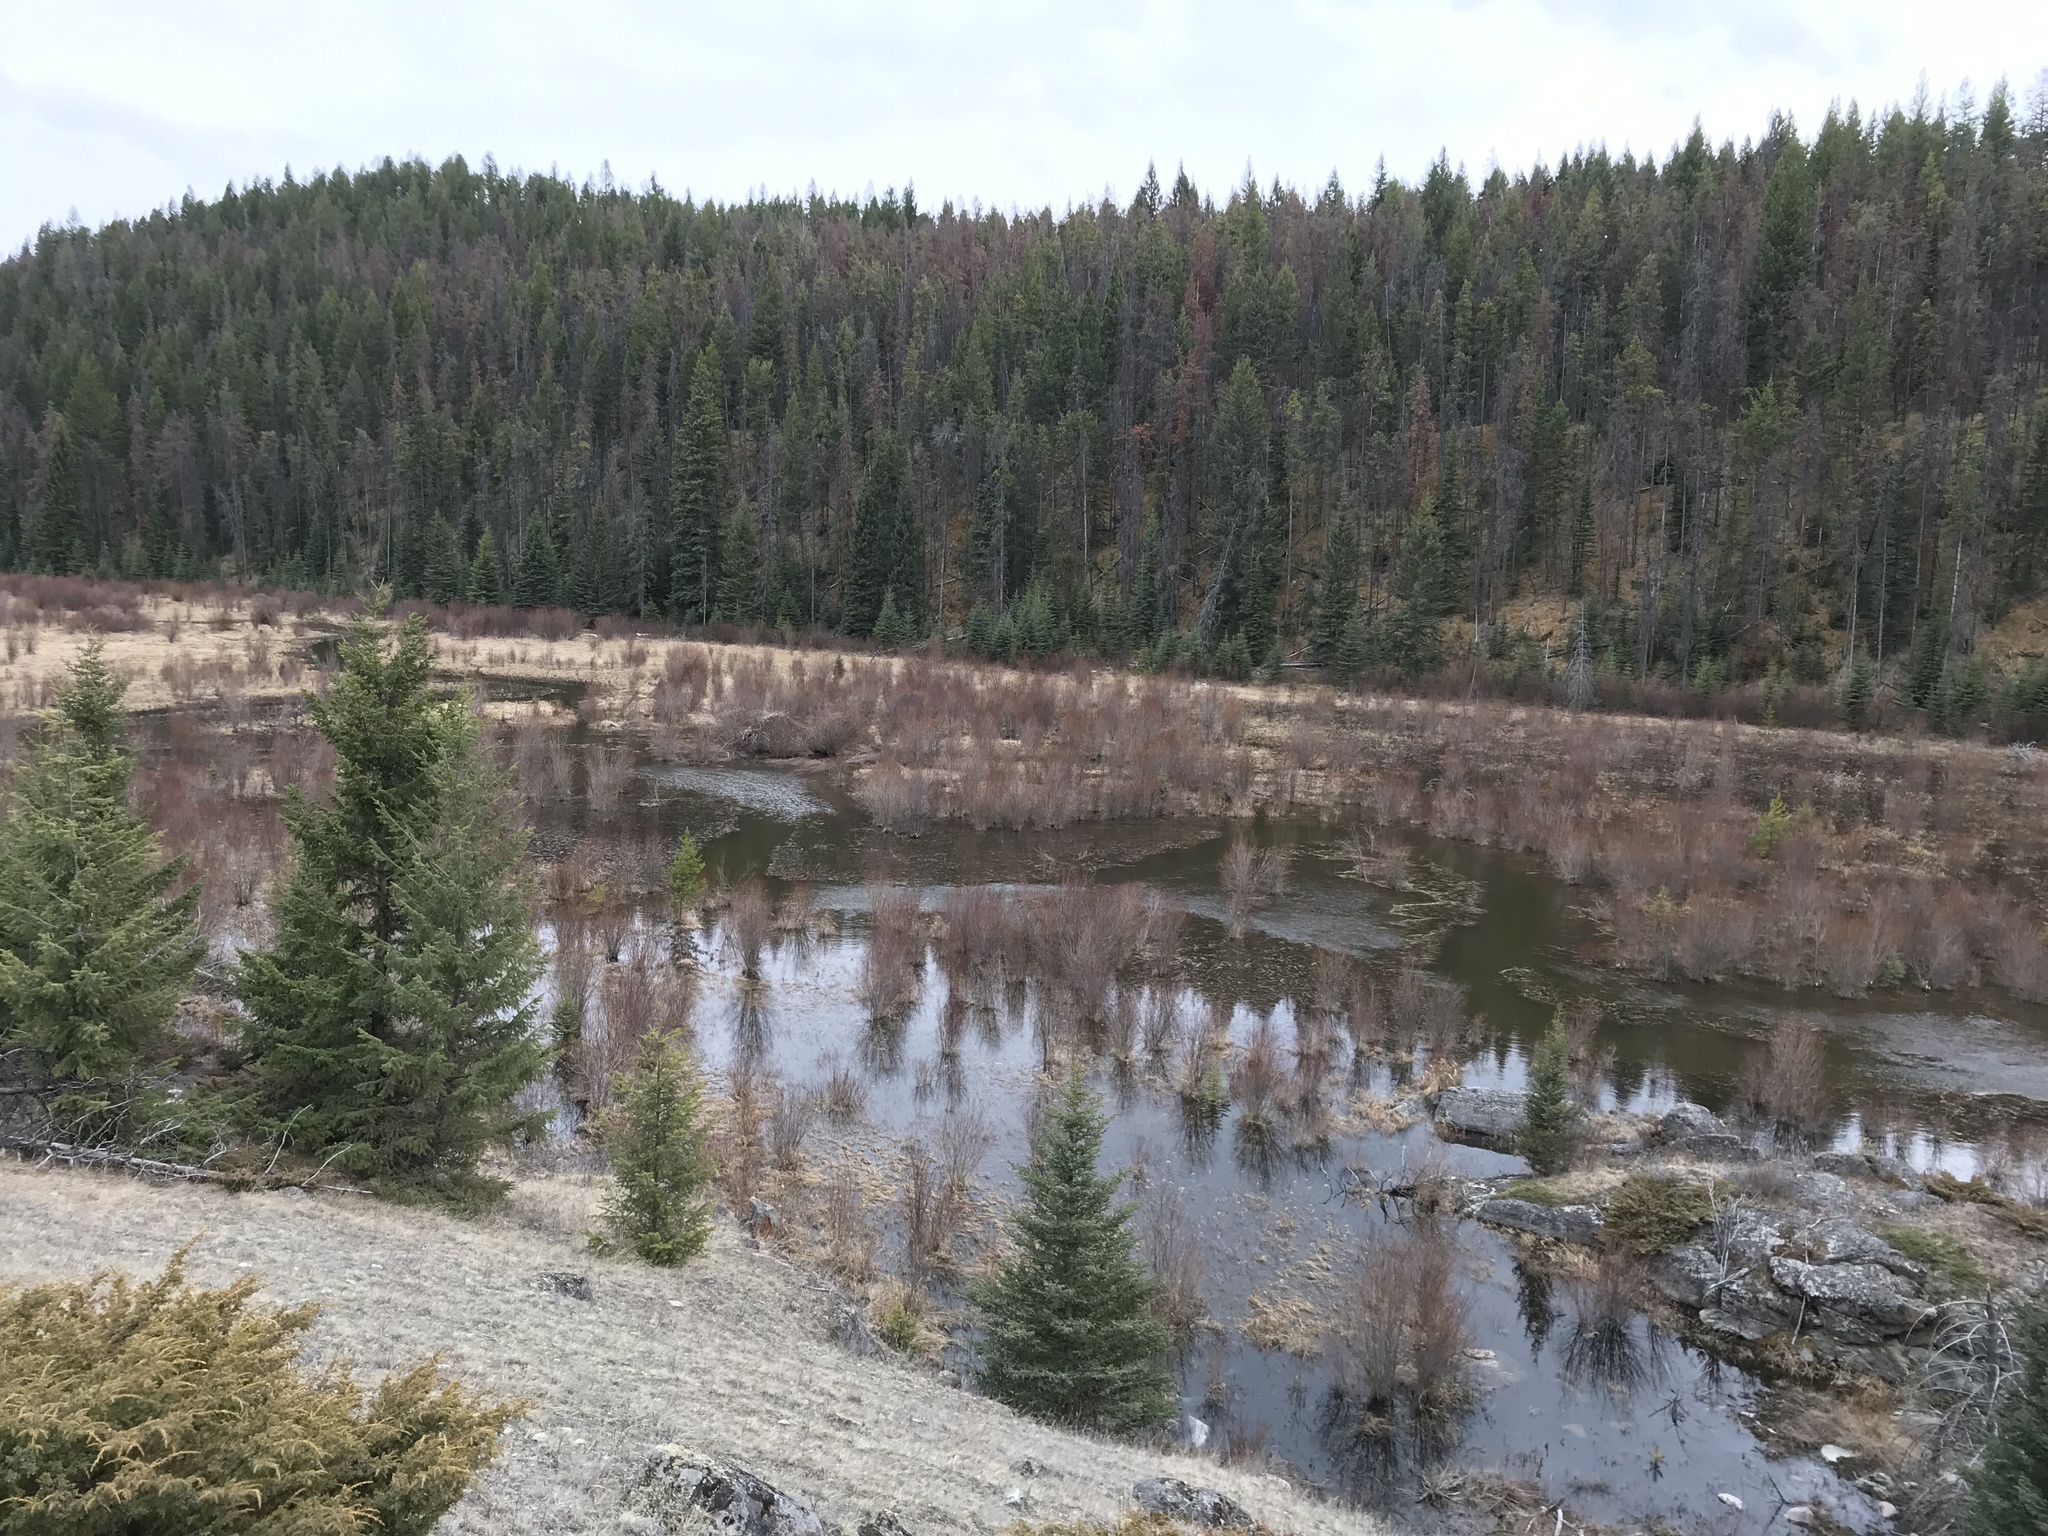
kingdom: Animalia
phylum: Chordata
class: Mammalia
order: Rodentia
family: Castoridae
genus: Castor
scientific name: Castor canadensis
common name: American beaver
